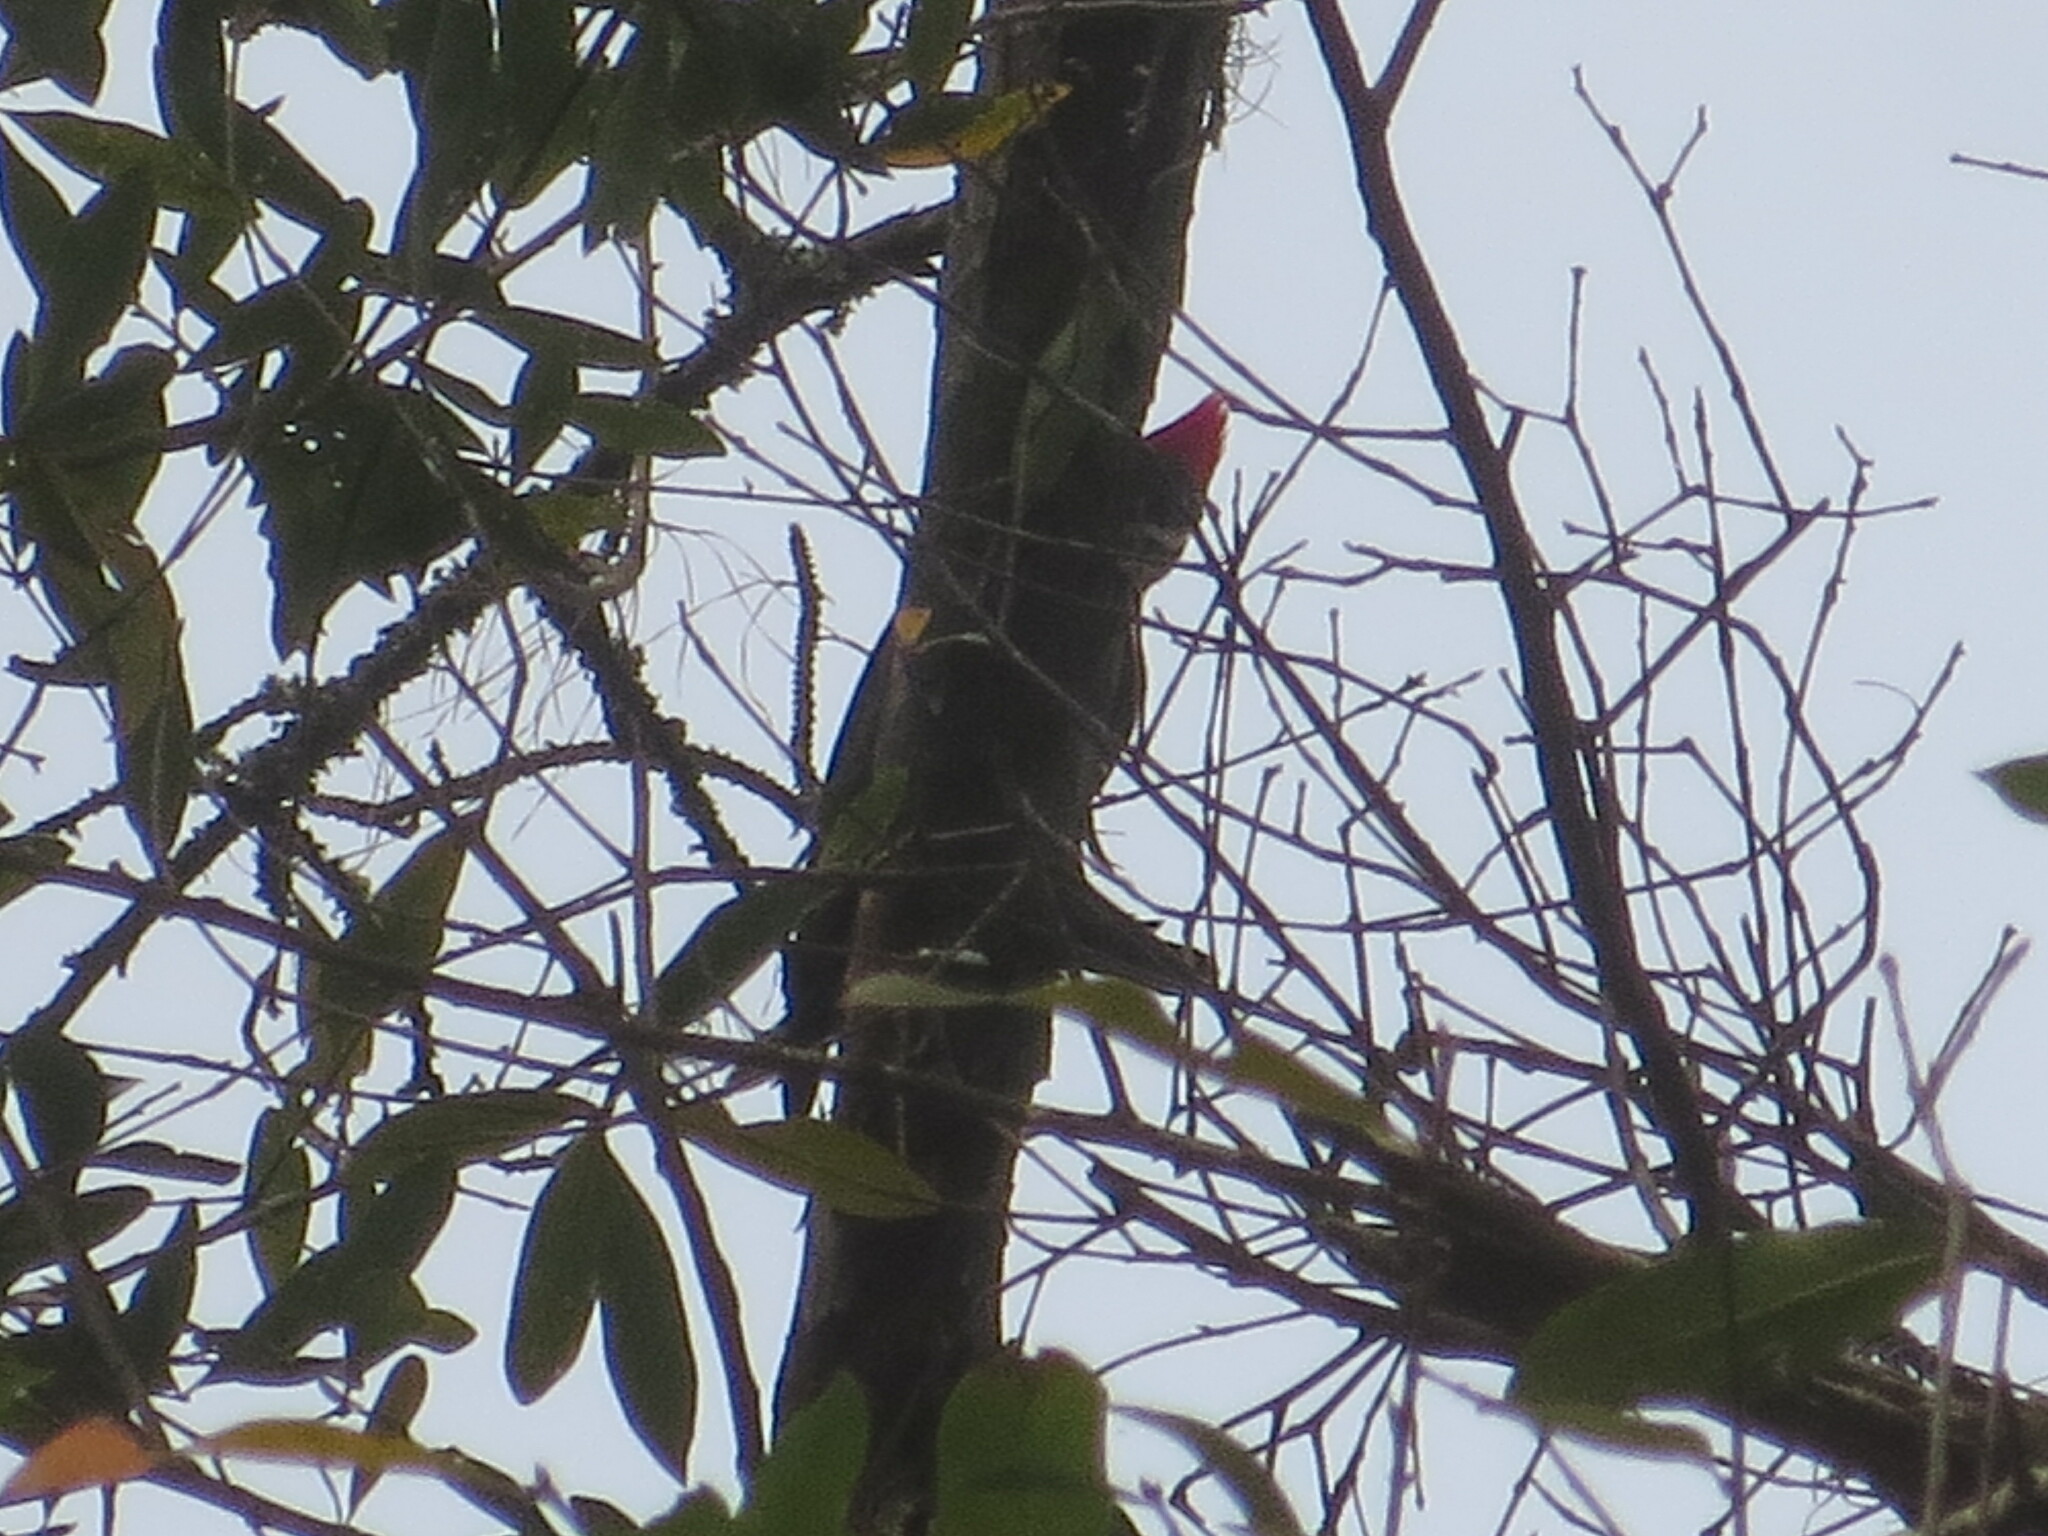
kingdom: Animalia
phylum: Chordata
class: Aves
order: Piciformes
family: Picidae
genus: Dryocopus
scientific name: Dryocopus pileatus
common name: Pileated woodpecker
